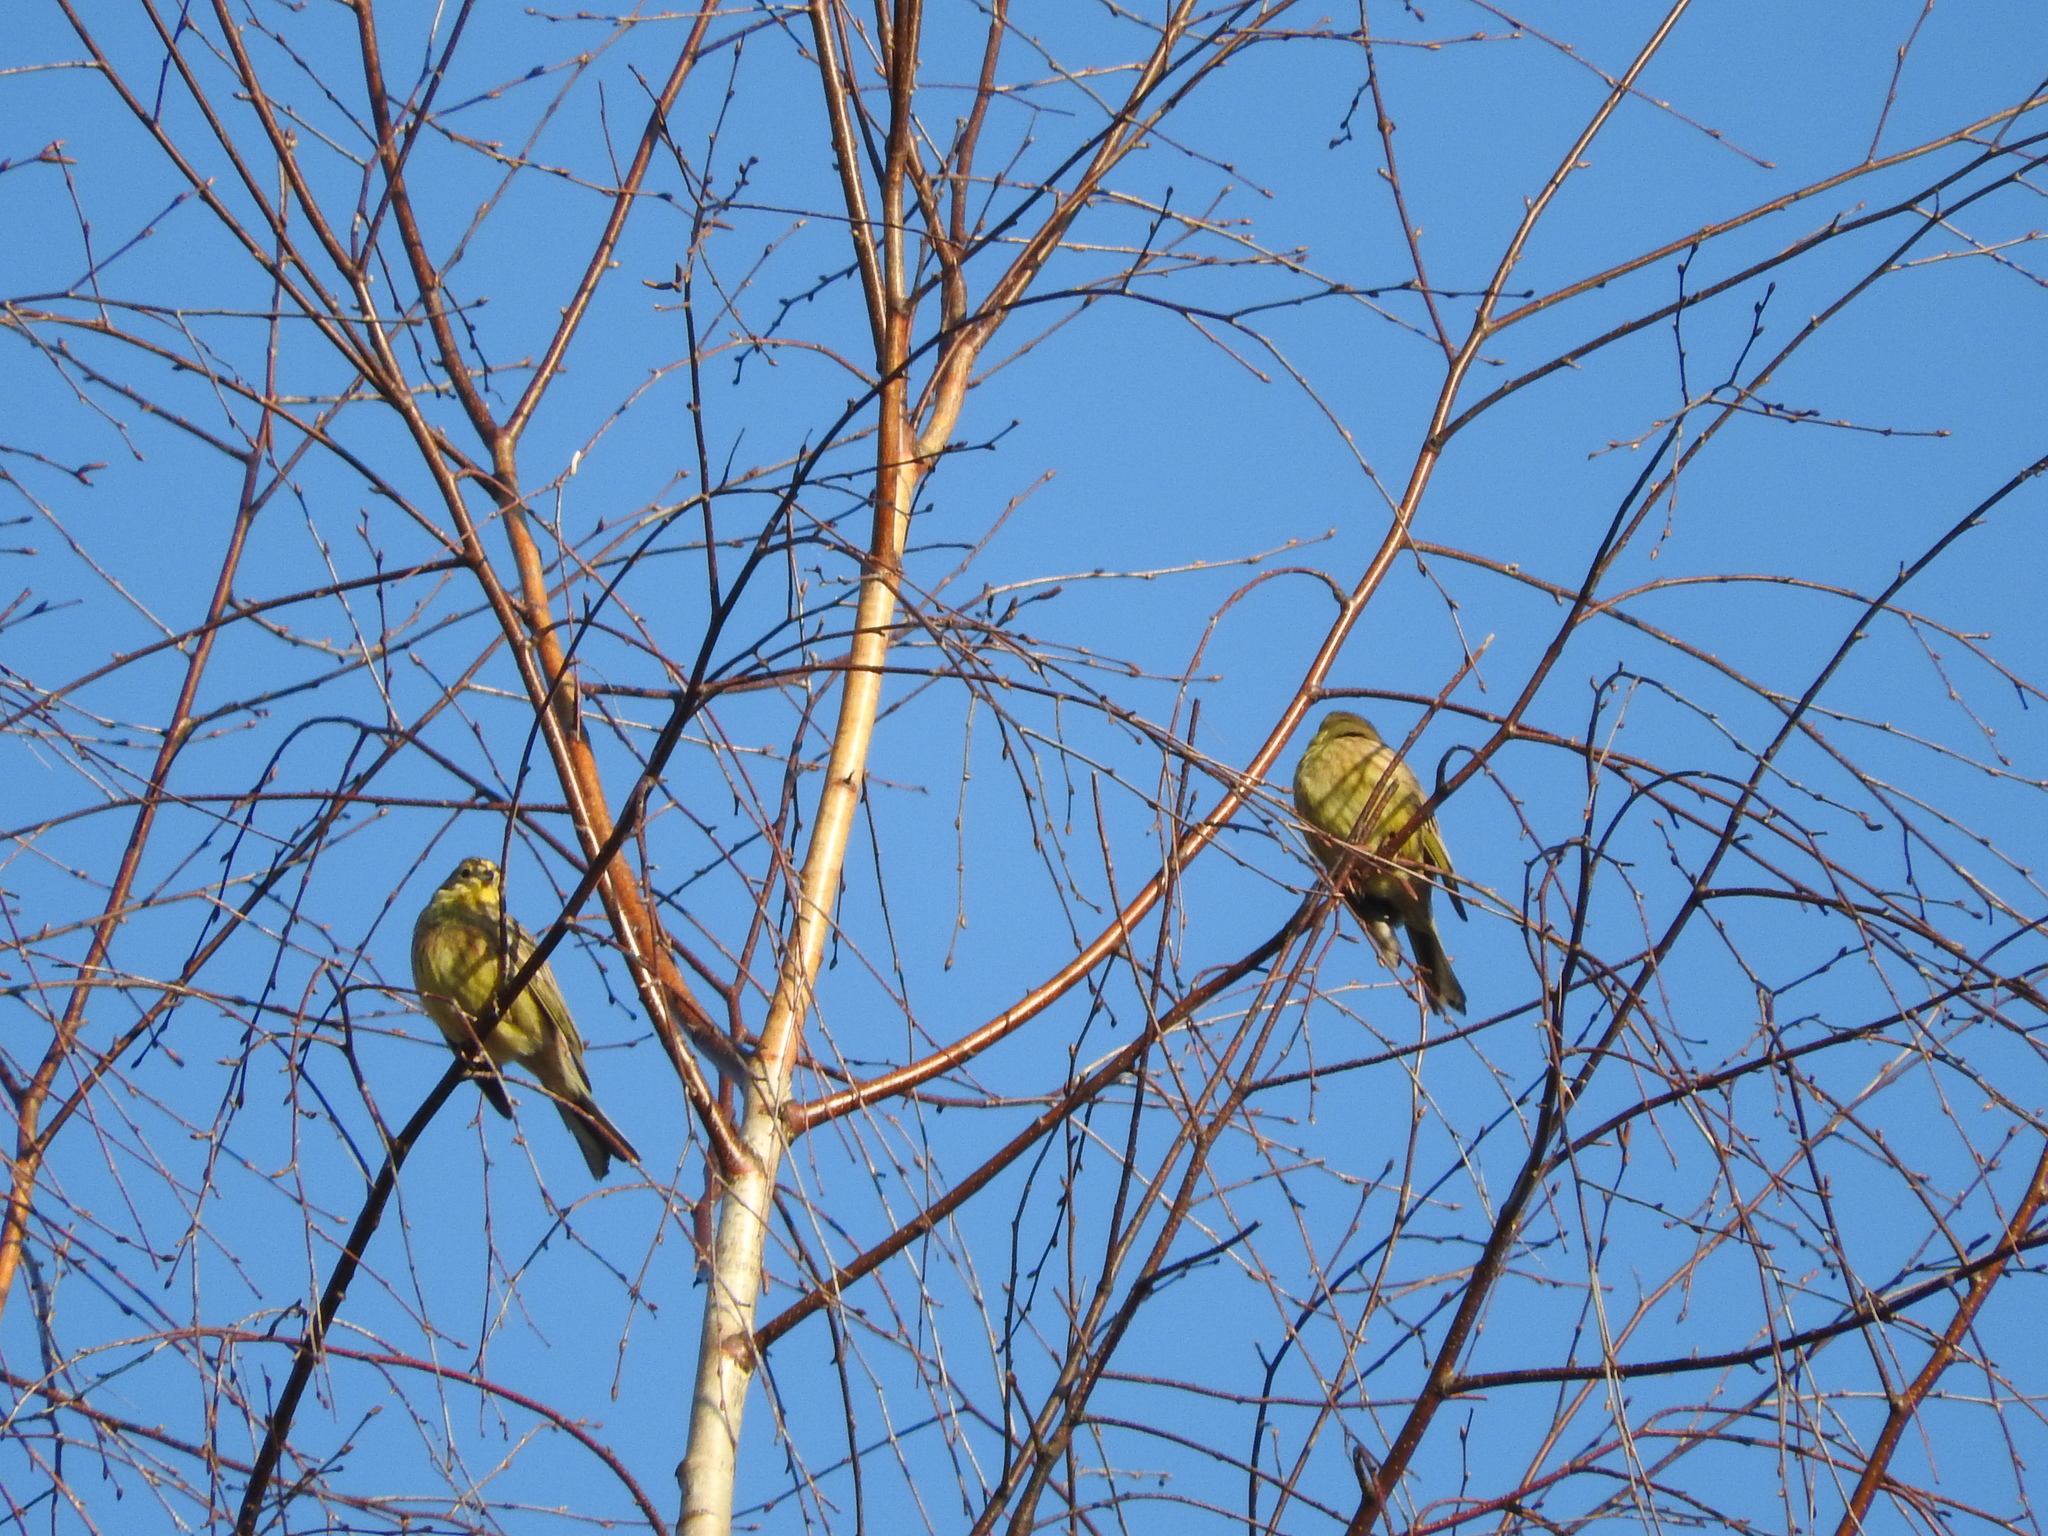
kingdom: Animalia
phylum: Chordata
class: Aves
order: Passeriformes
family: Emberizidae
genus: Emberiza
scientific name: Emberiza citrinella
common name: Yellowhammer
